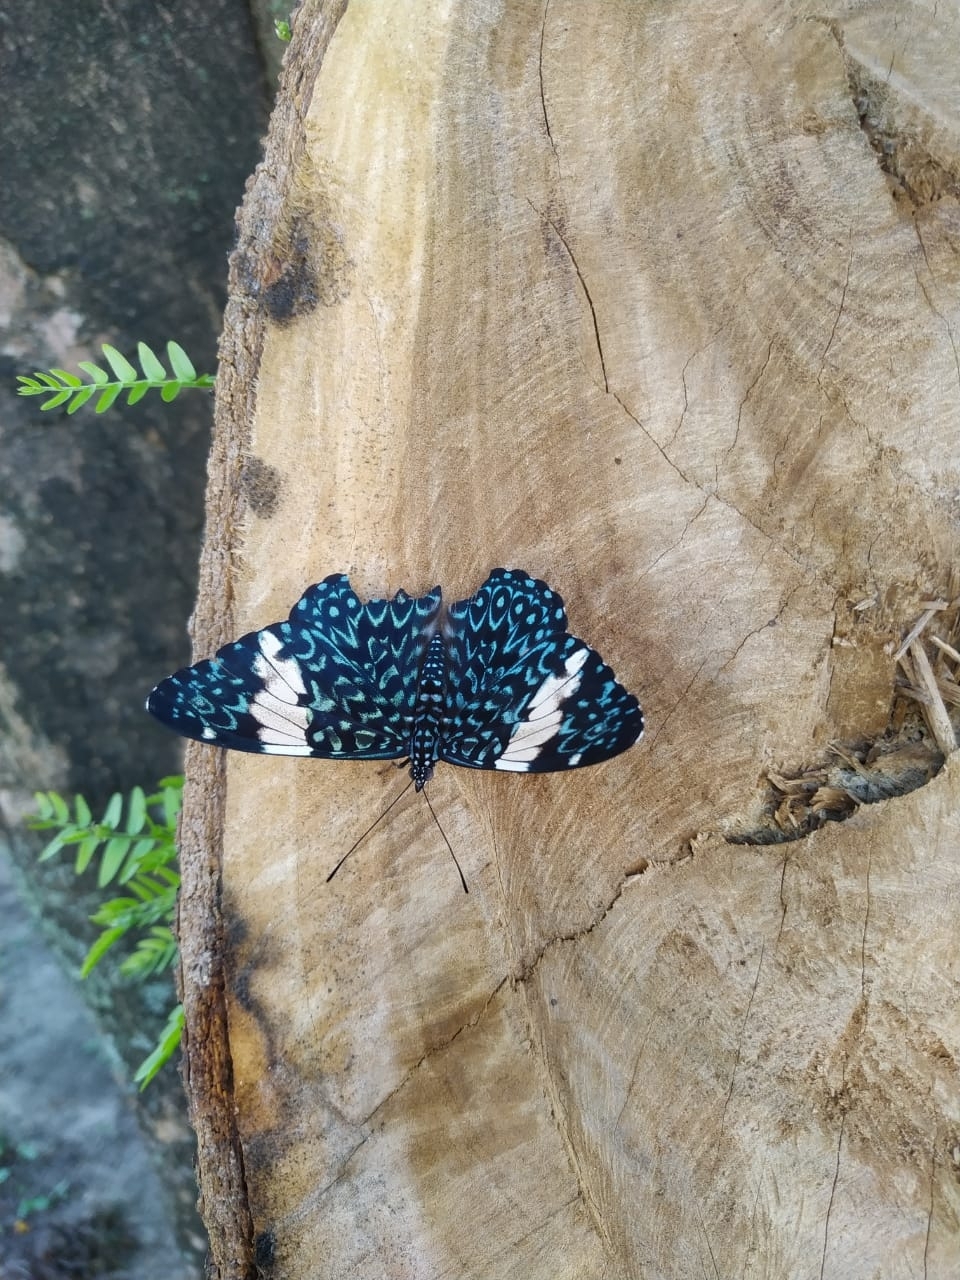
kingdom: Animalia
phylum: Arthropoda
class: Insecta
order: Lepidoptera
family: Nymphalidae
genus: Hamadryas
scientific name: Hamadryas amphinome
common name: Red cracker
